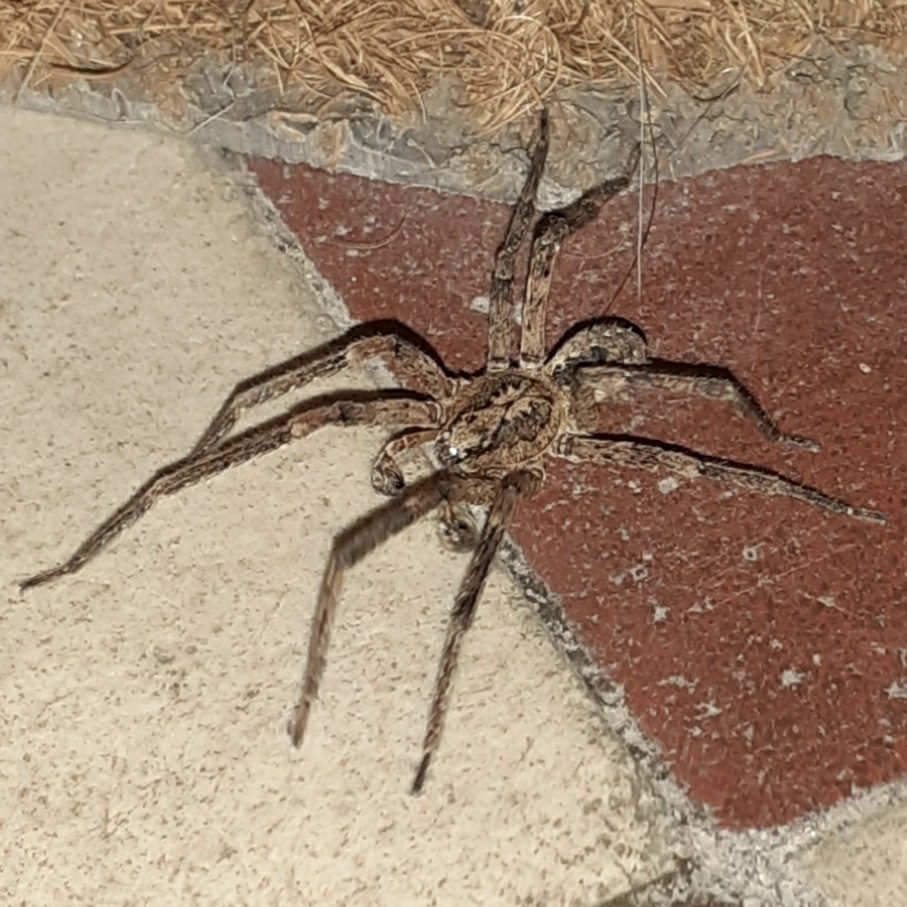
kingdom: Animalia
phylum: Arthropoda
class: Arachnida
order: Araneae
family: Zoropsidae
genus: Zoropsis
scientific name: Zoropsis spinimana
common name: Zoropsid spider
